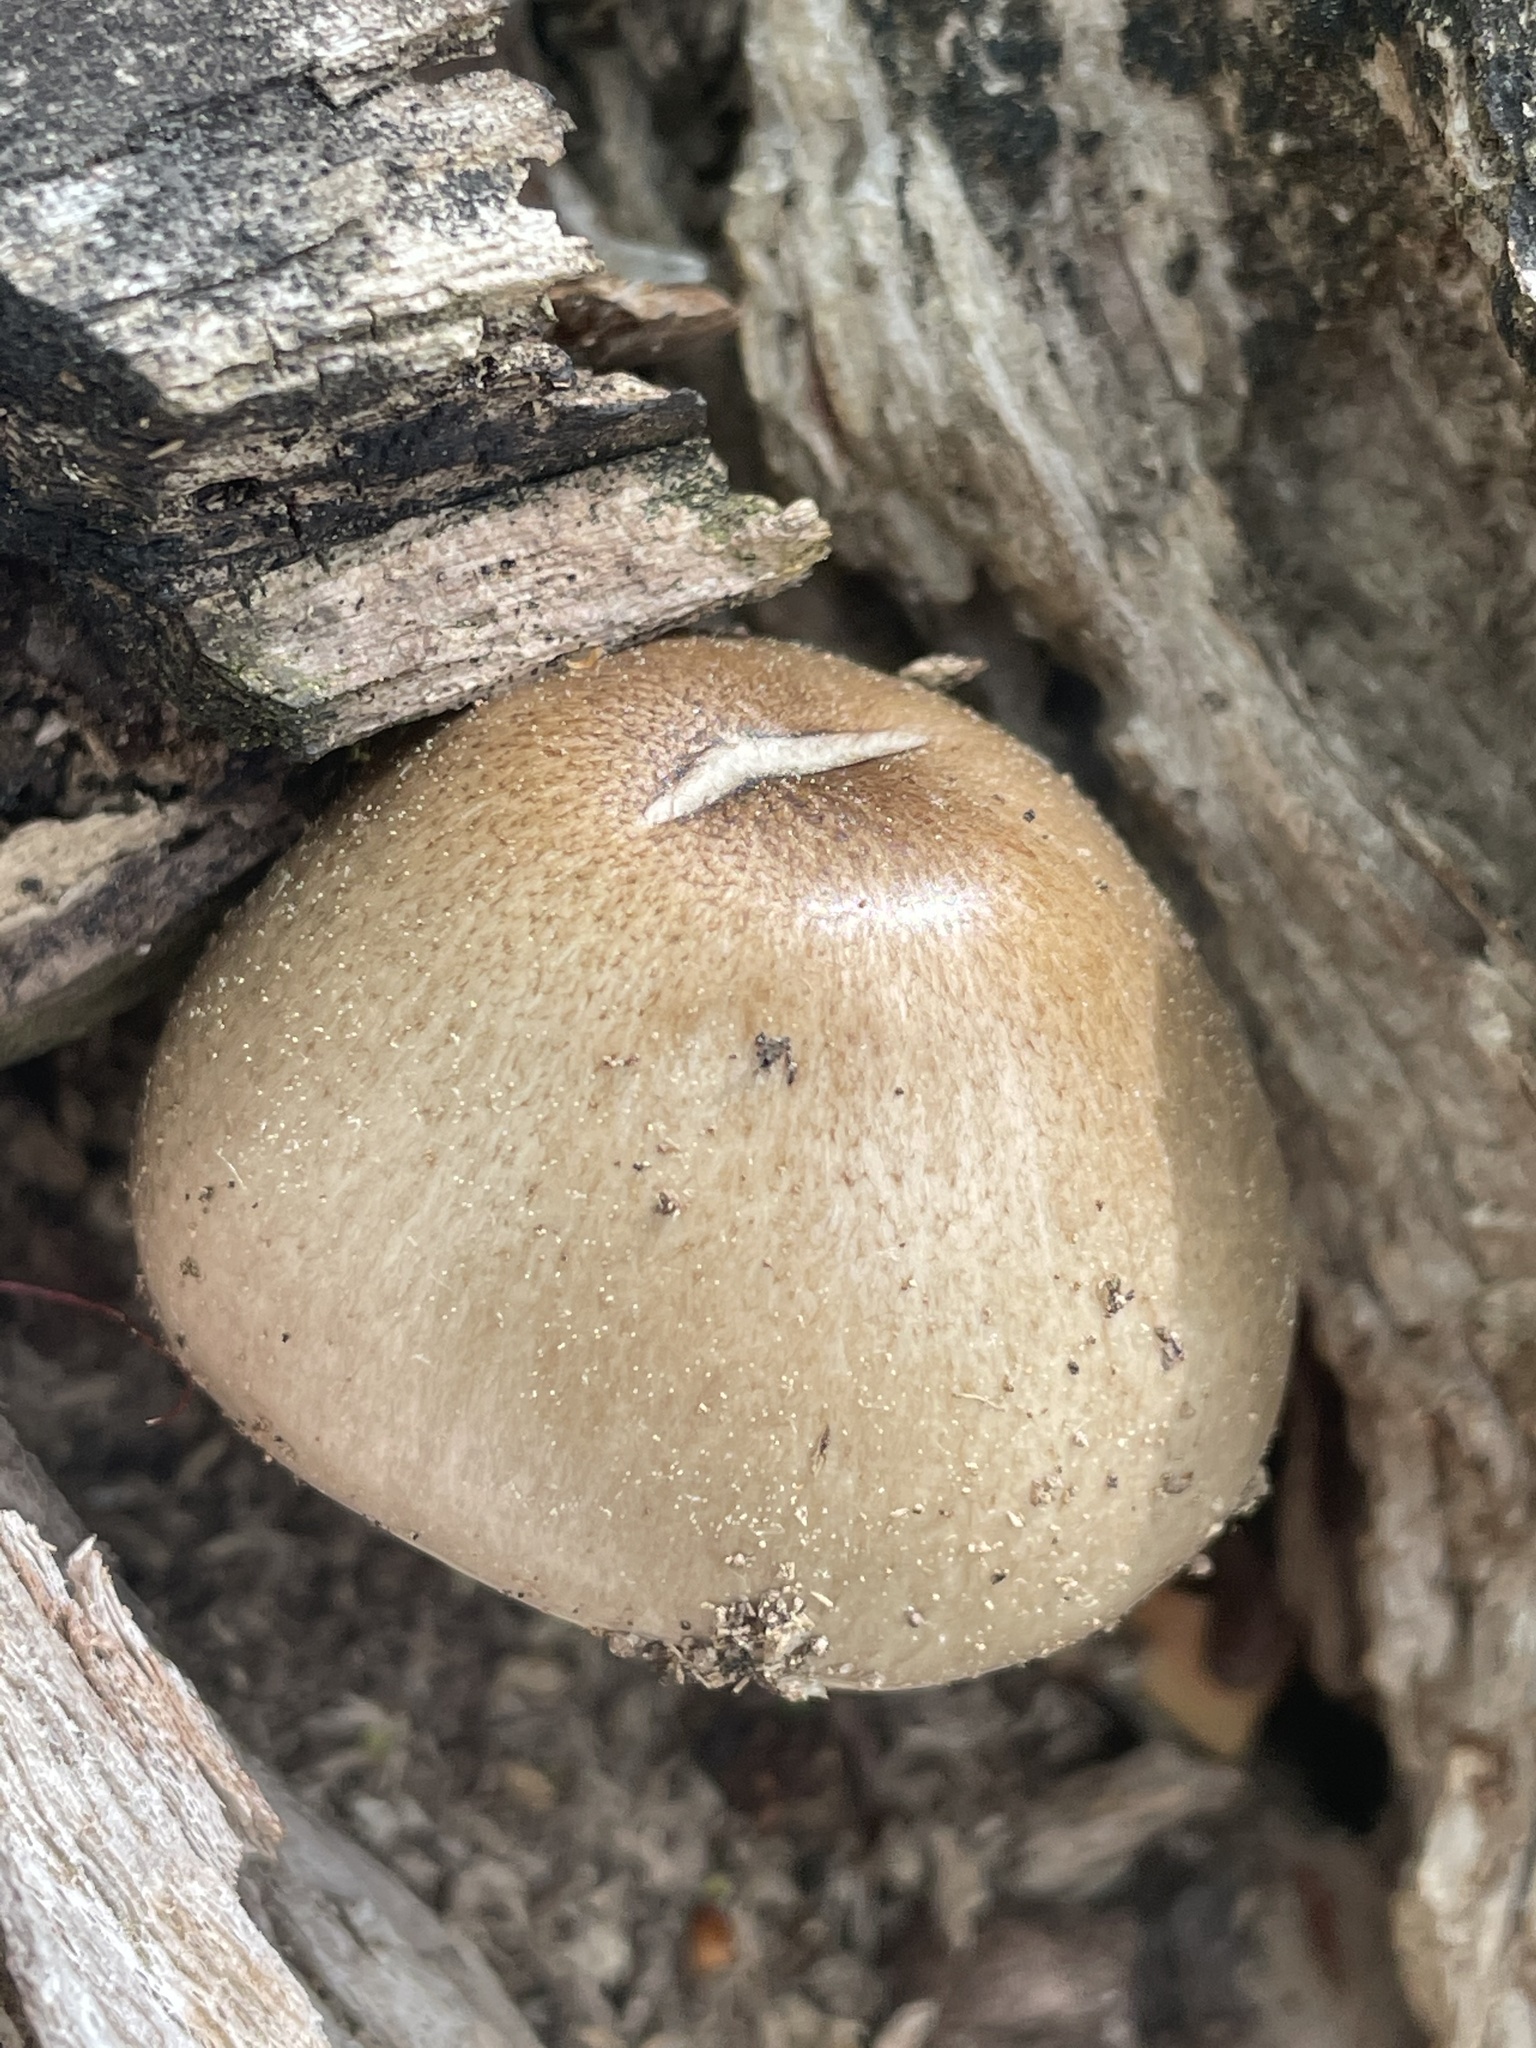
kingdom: Fungi
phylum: Basidiomycota
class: Agaricomycetes
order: Agaricales
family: Pluteaceae
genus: Pluteus
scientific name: Pluteus cervinus
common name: Deer shield
